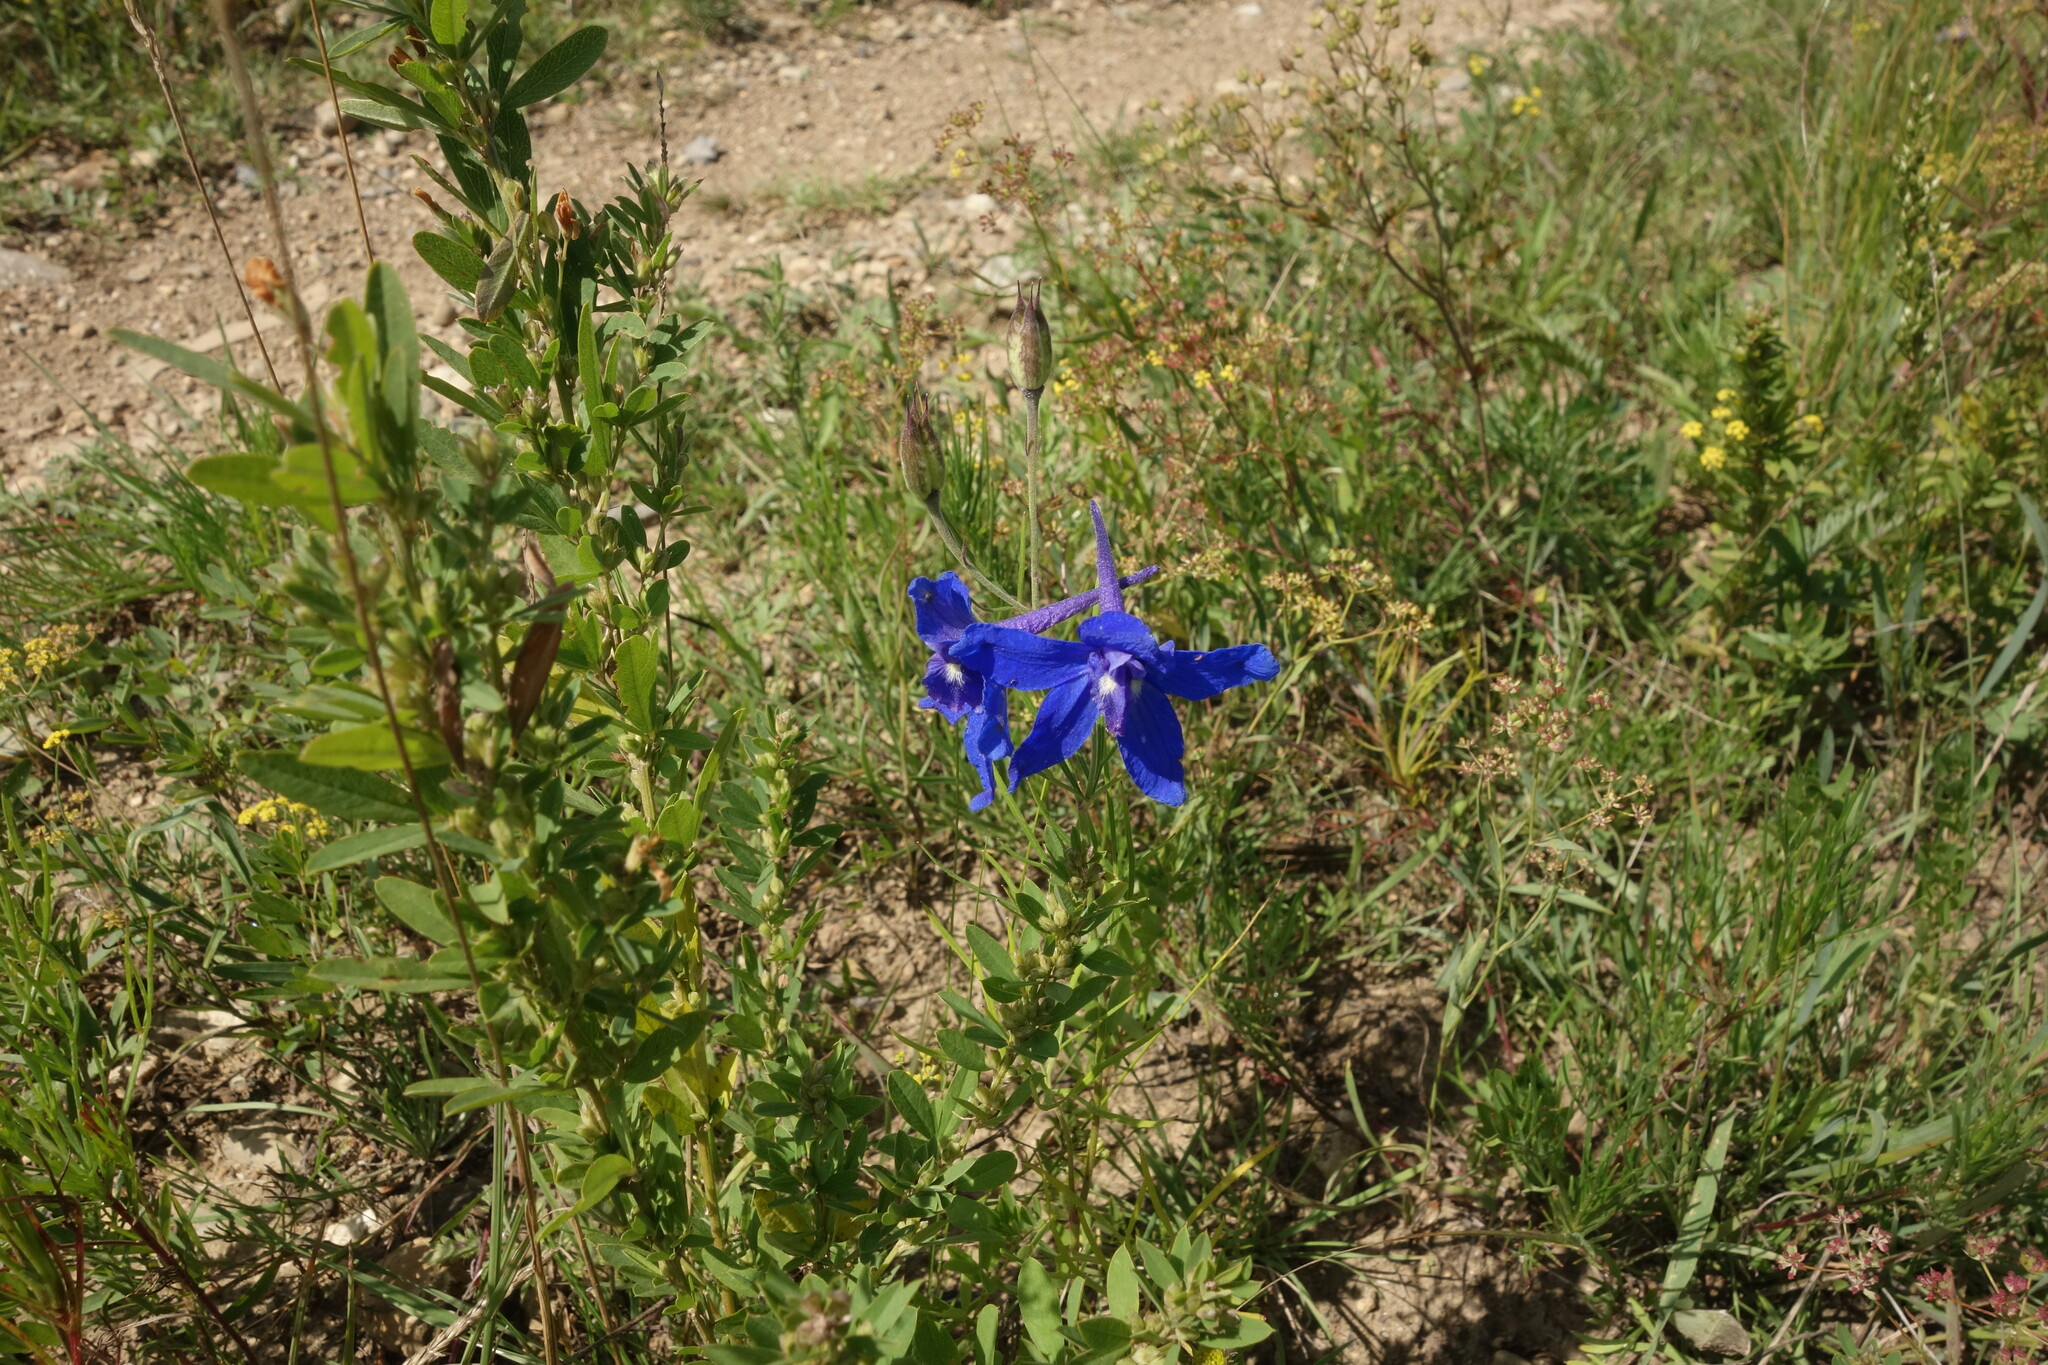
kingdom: Plantae
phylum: Tracheophyta
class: Magnoliopsida
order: Ranunculales
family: Ranunculaceae
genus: Delphinium
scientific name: Delphinium grandiflorum
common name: Siberian larkspur
